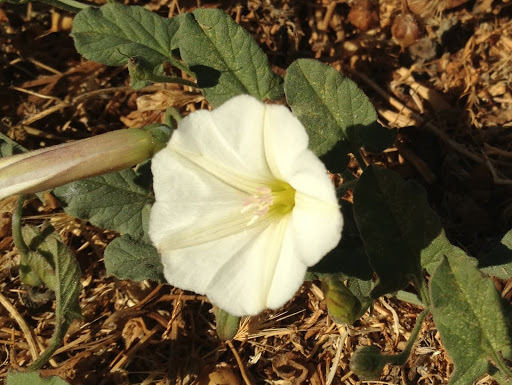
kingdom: Plantae
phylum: Tracheophyta
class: Magnoliopsida
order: Solanales
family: Convolvulaceae
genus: Convolvulus
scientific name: Convolvulus arvensis
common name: Field bindweed
